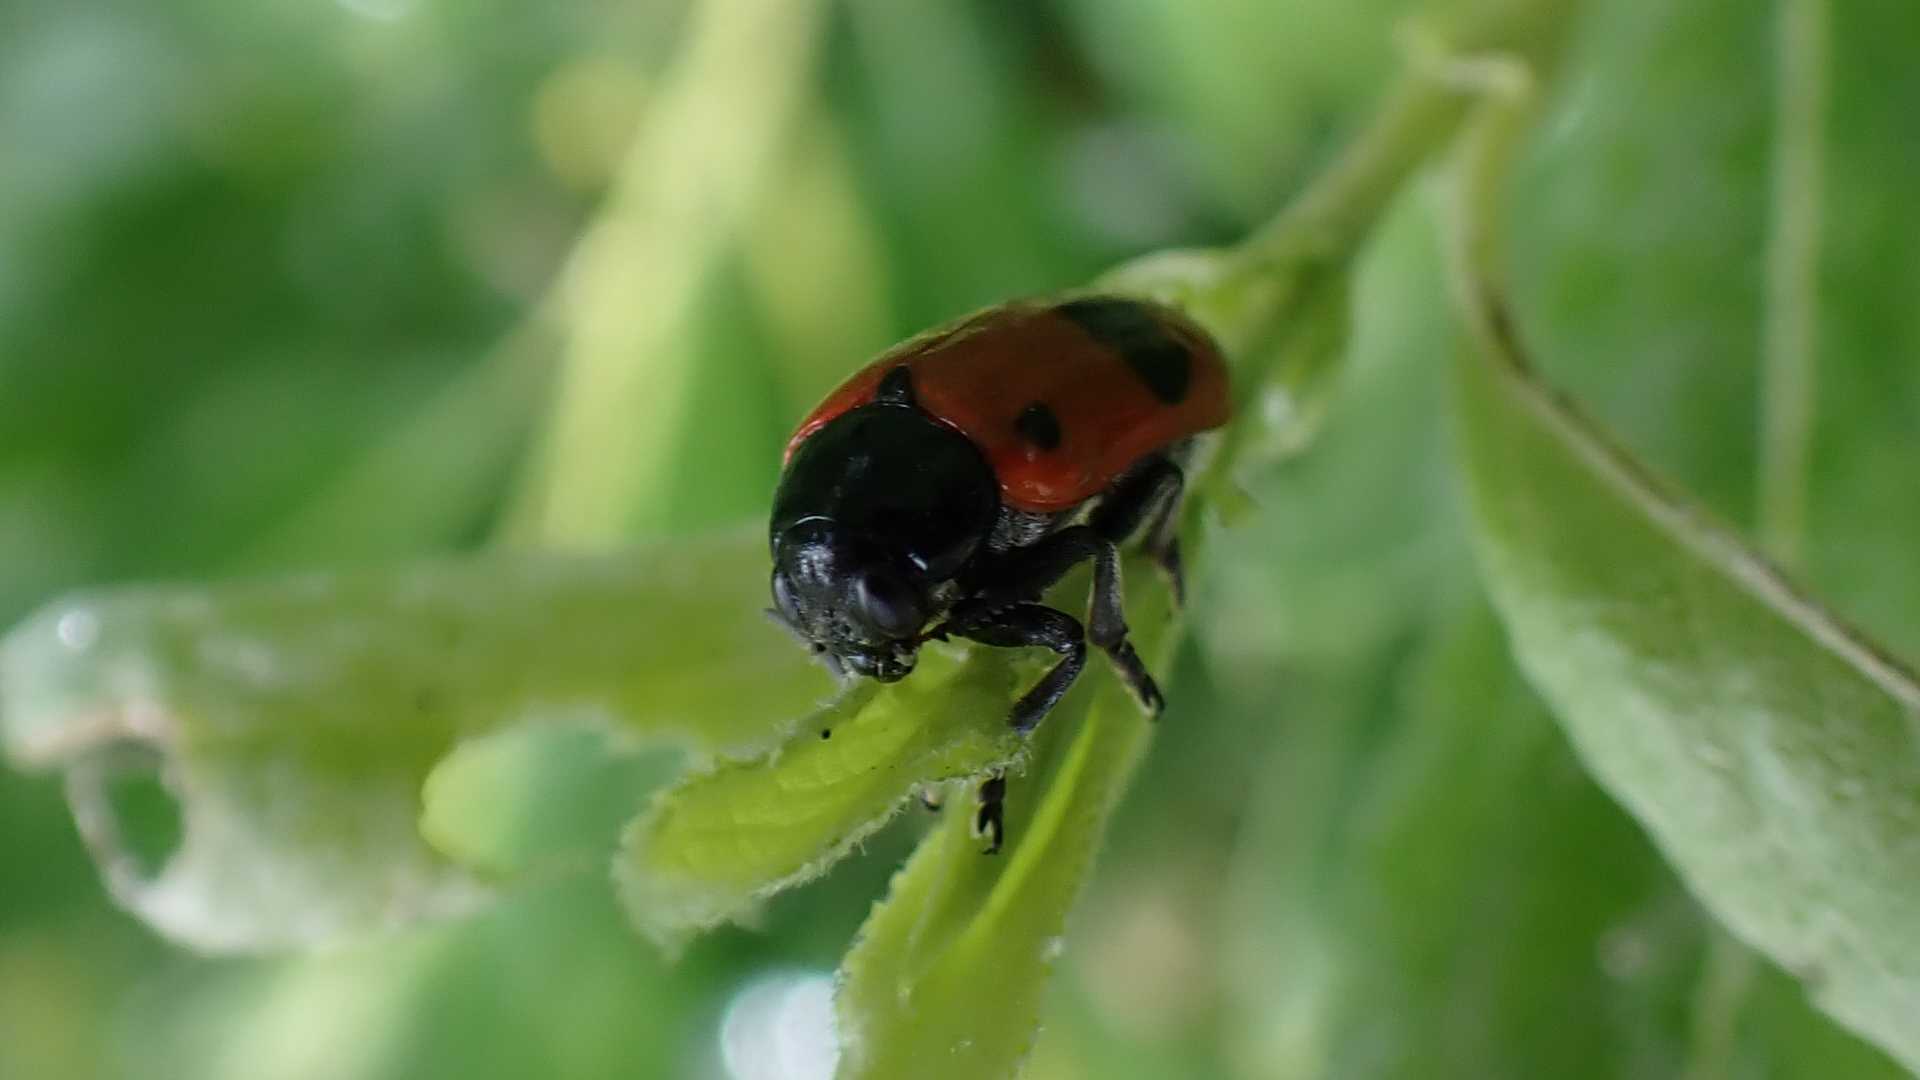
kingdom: Animalia
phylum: Arthropoda
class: Insecta
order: Coleoptera
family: Chrysomelidae
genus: Clytra
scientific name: Clytra laeviuscula
